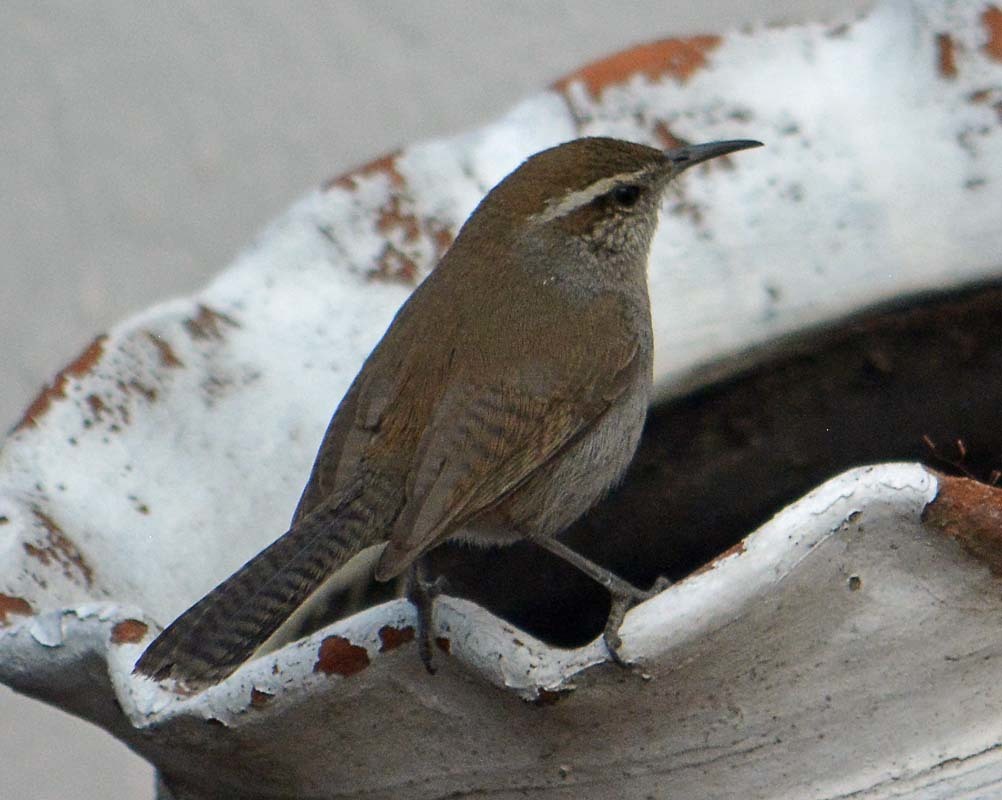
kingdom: Animalia
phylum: Chordata
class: Aves
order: Passeriformes
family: Troglodytidae
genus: Thryomanes
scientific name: Thryomanes bewickii
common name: Bewick's wren
